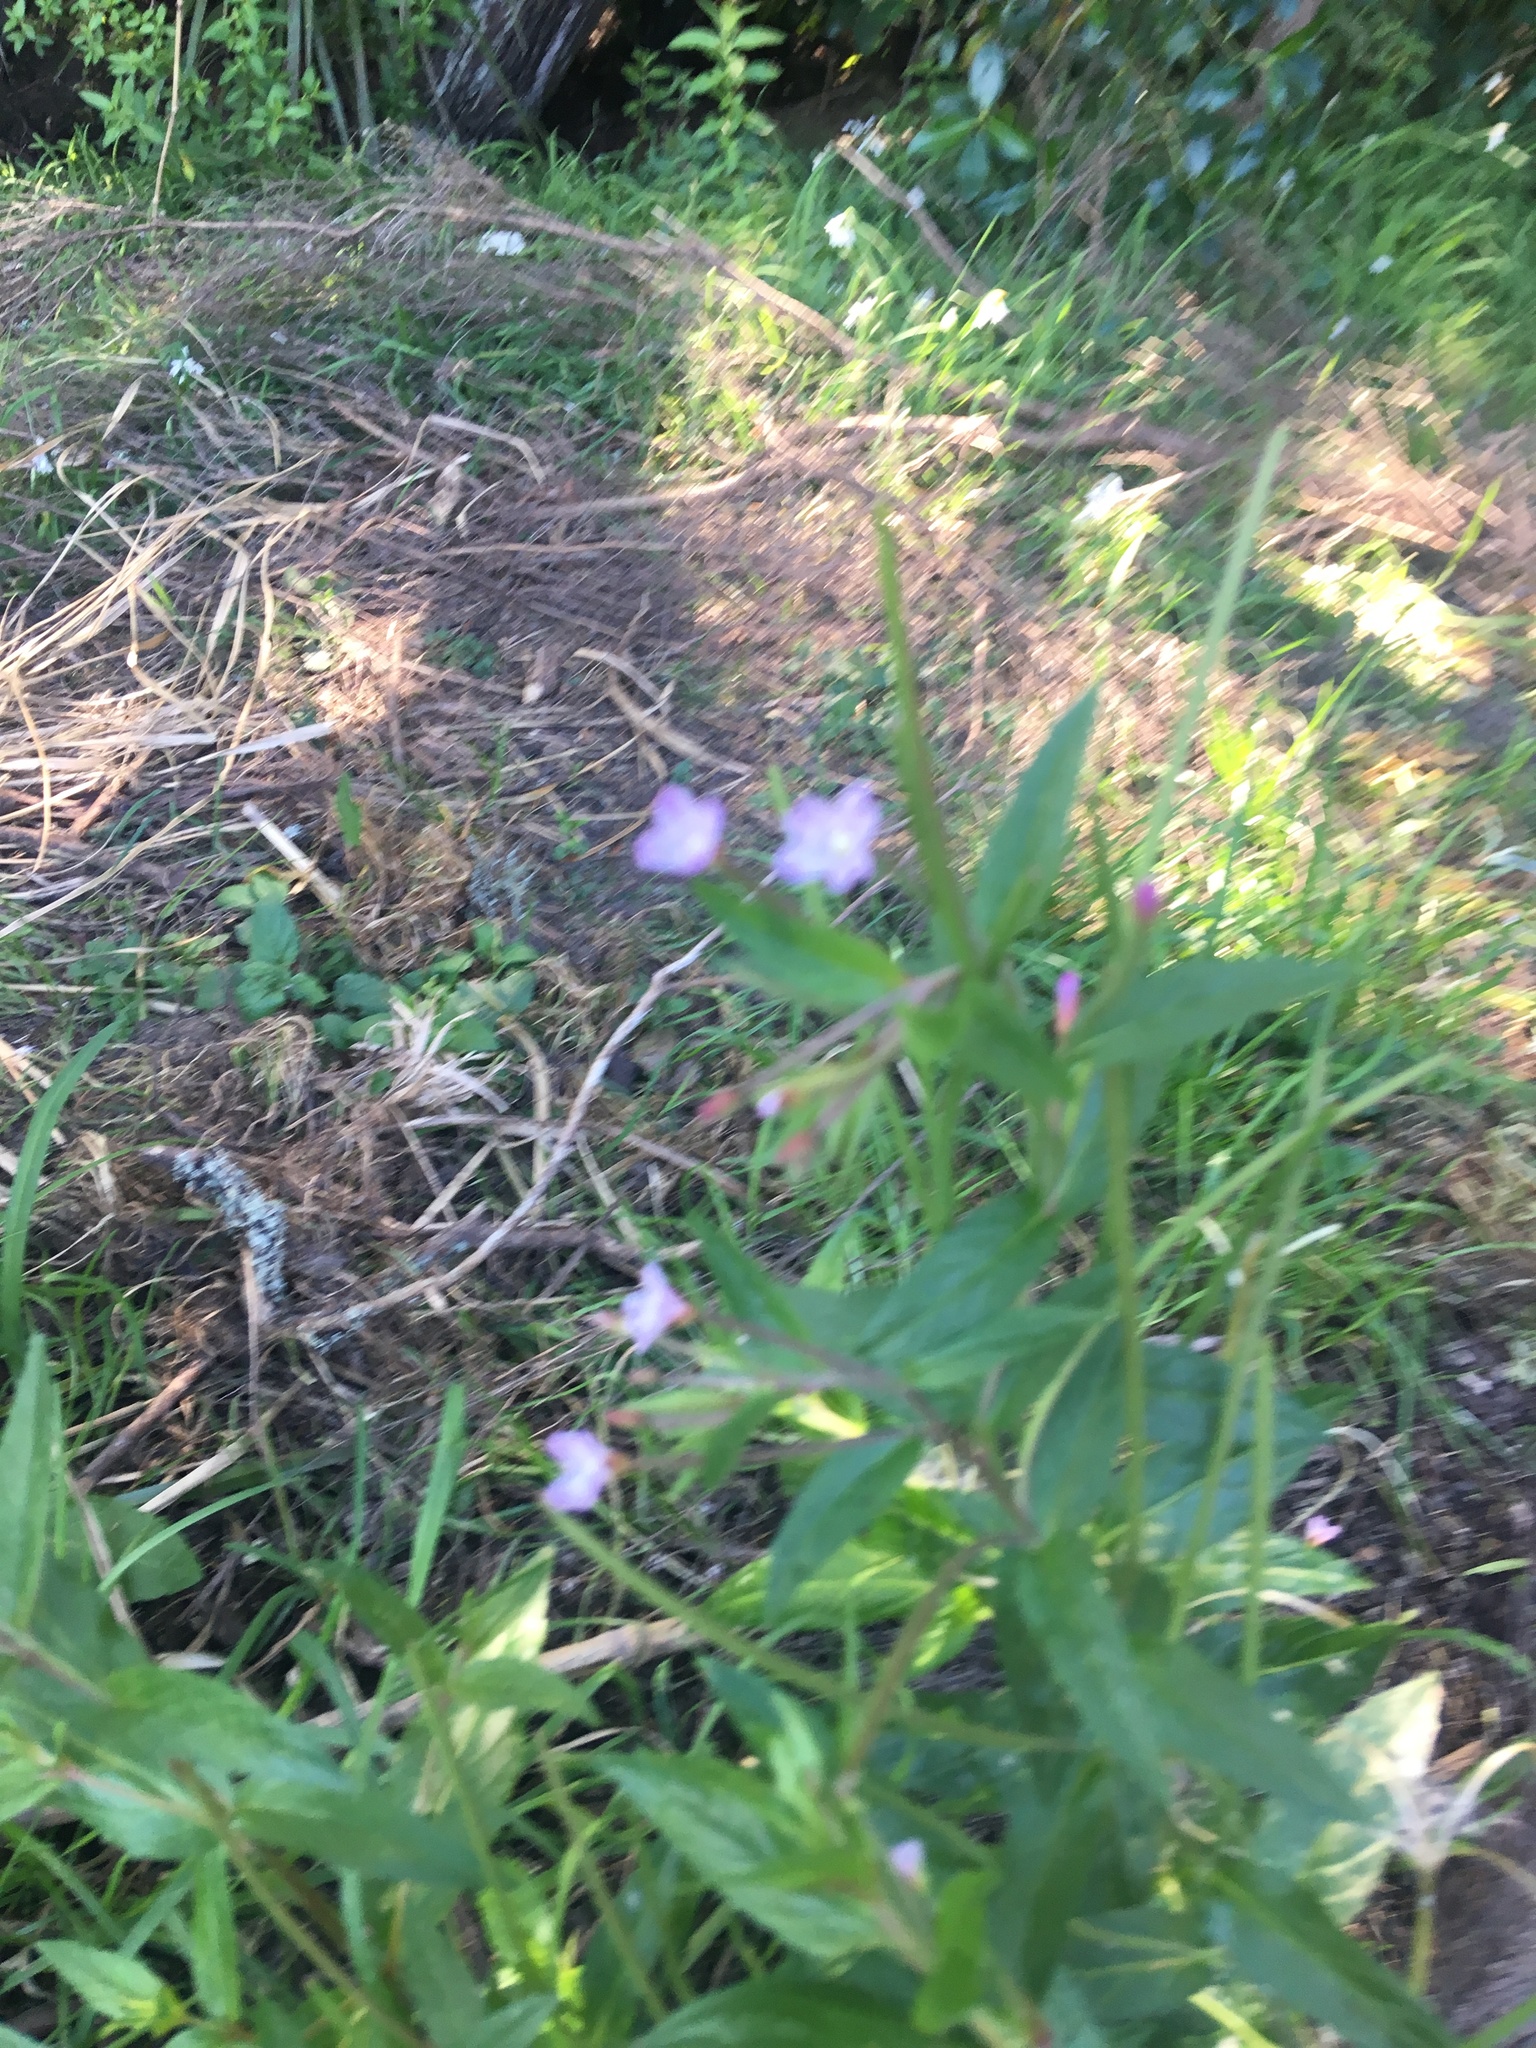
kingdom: Plantae
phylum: Tracheophyta
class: Magnoliopsida
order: Myrtales
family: Onagraceae
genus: Epilobium
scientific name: Epilobium ciliatum
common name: American willowherb
